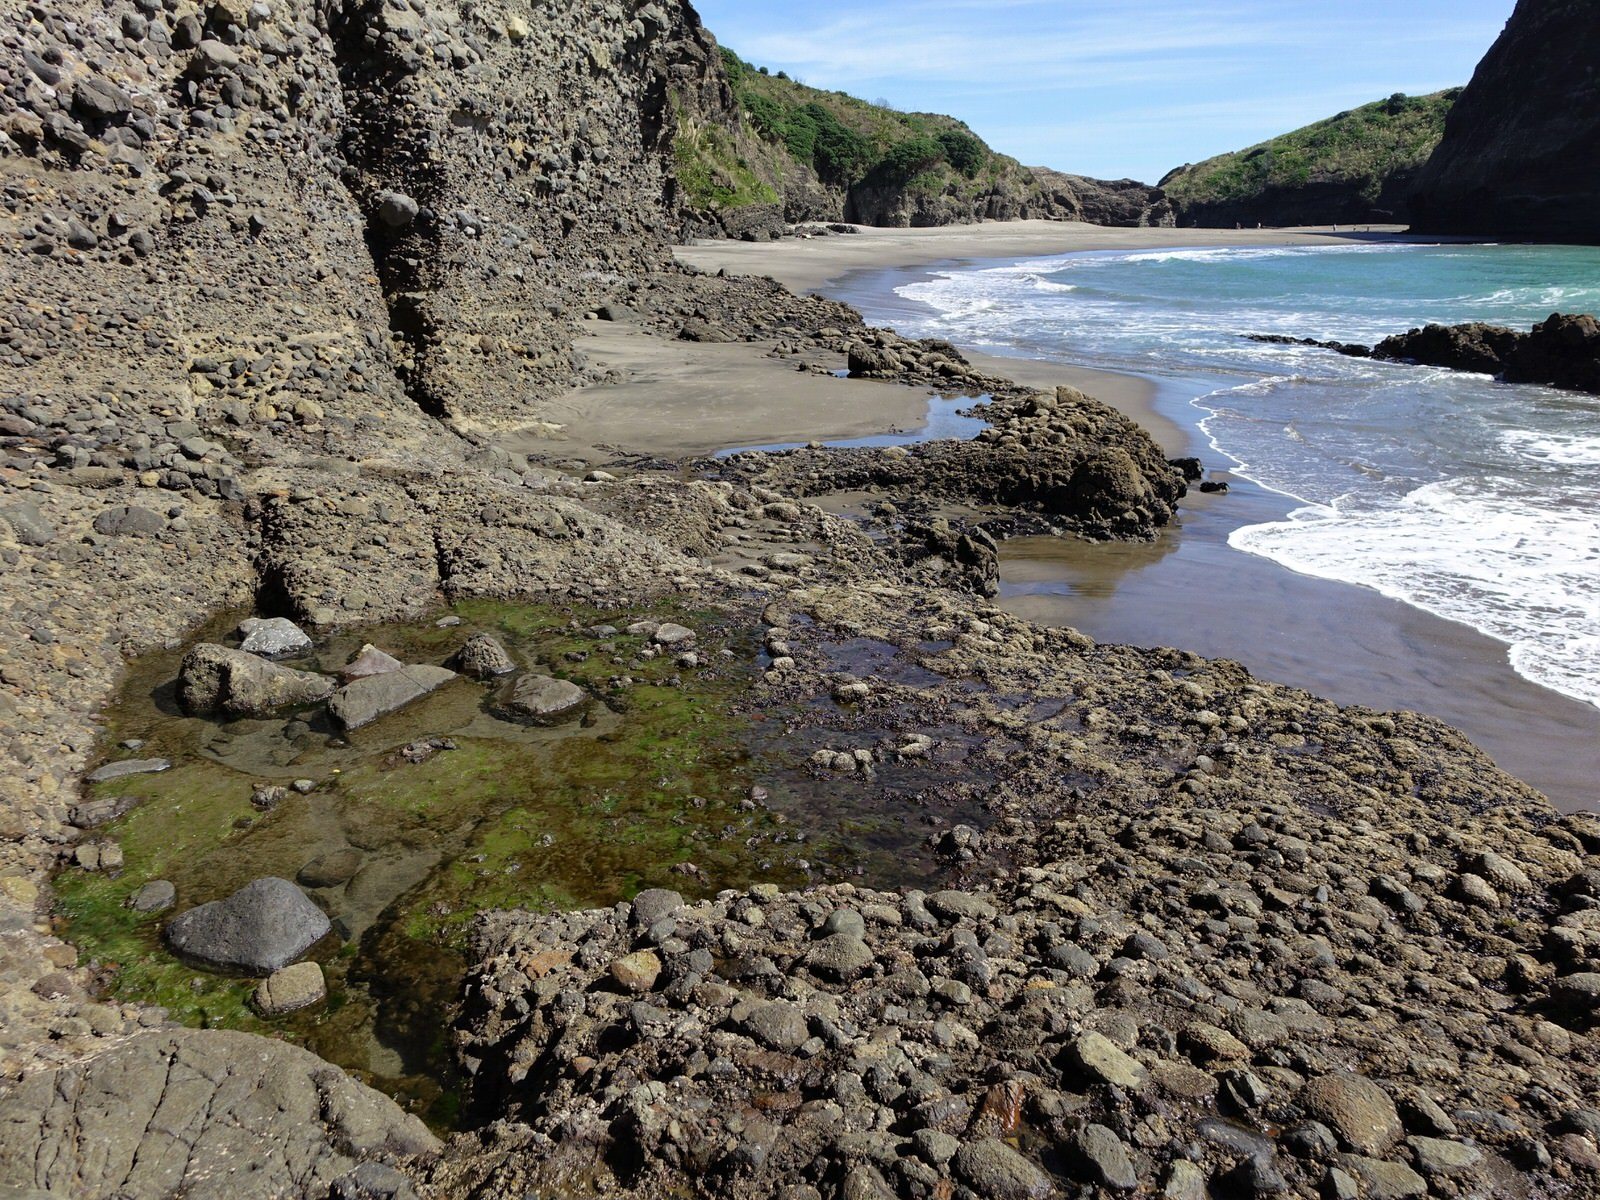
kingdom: Animalia
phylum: Annelida
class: Polychaeta
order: Sabellida
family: Serpulidae
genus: Spirobranchus
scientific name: Spirobranchus cariniferus
